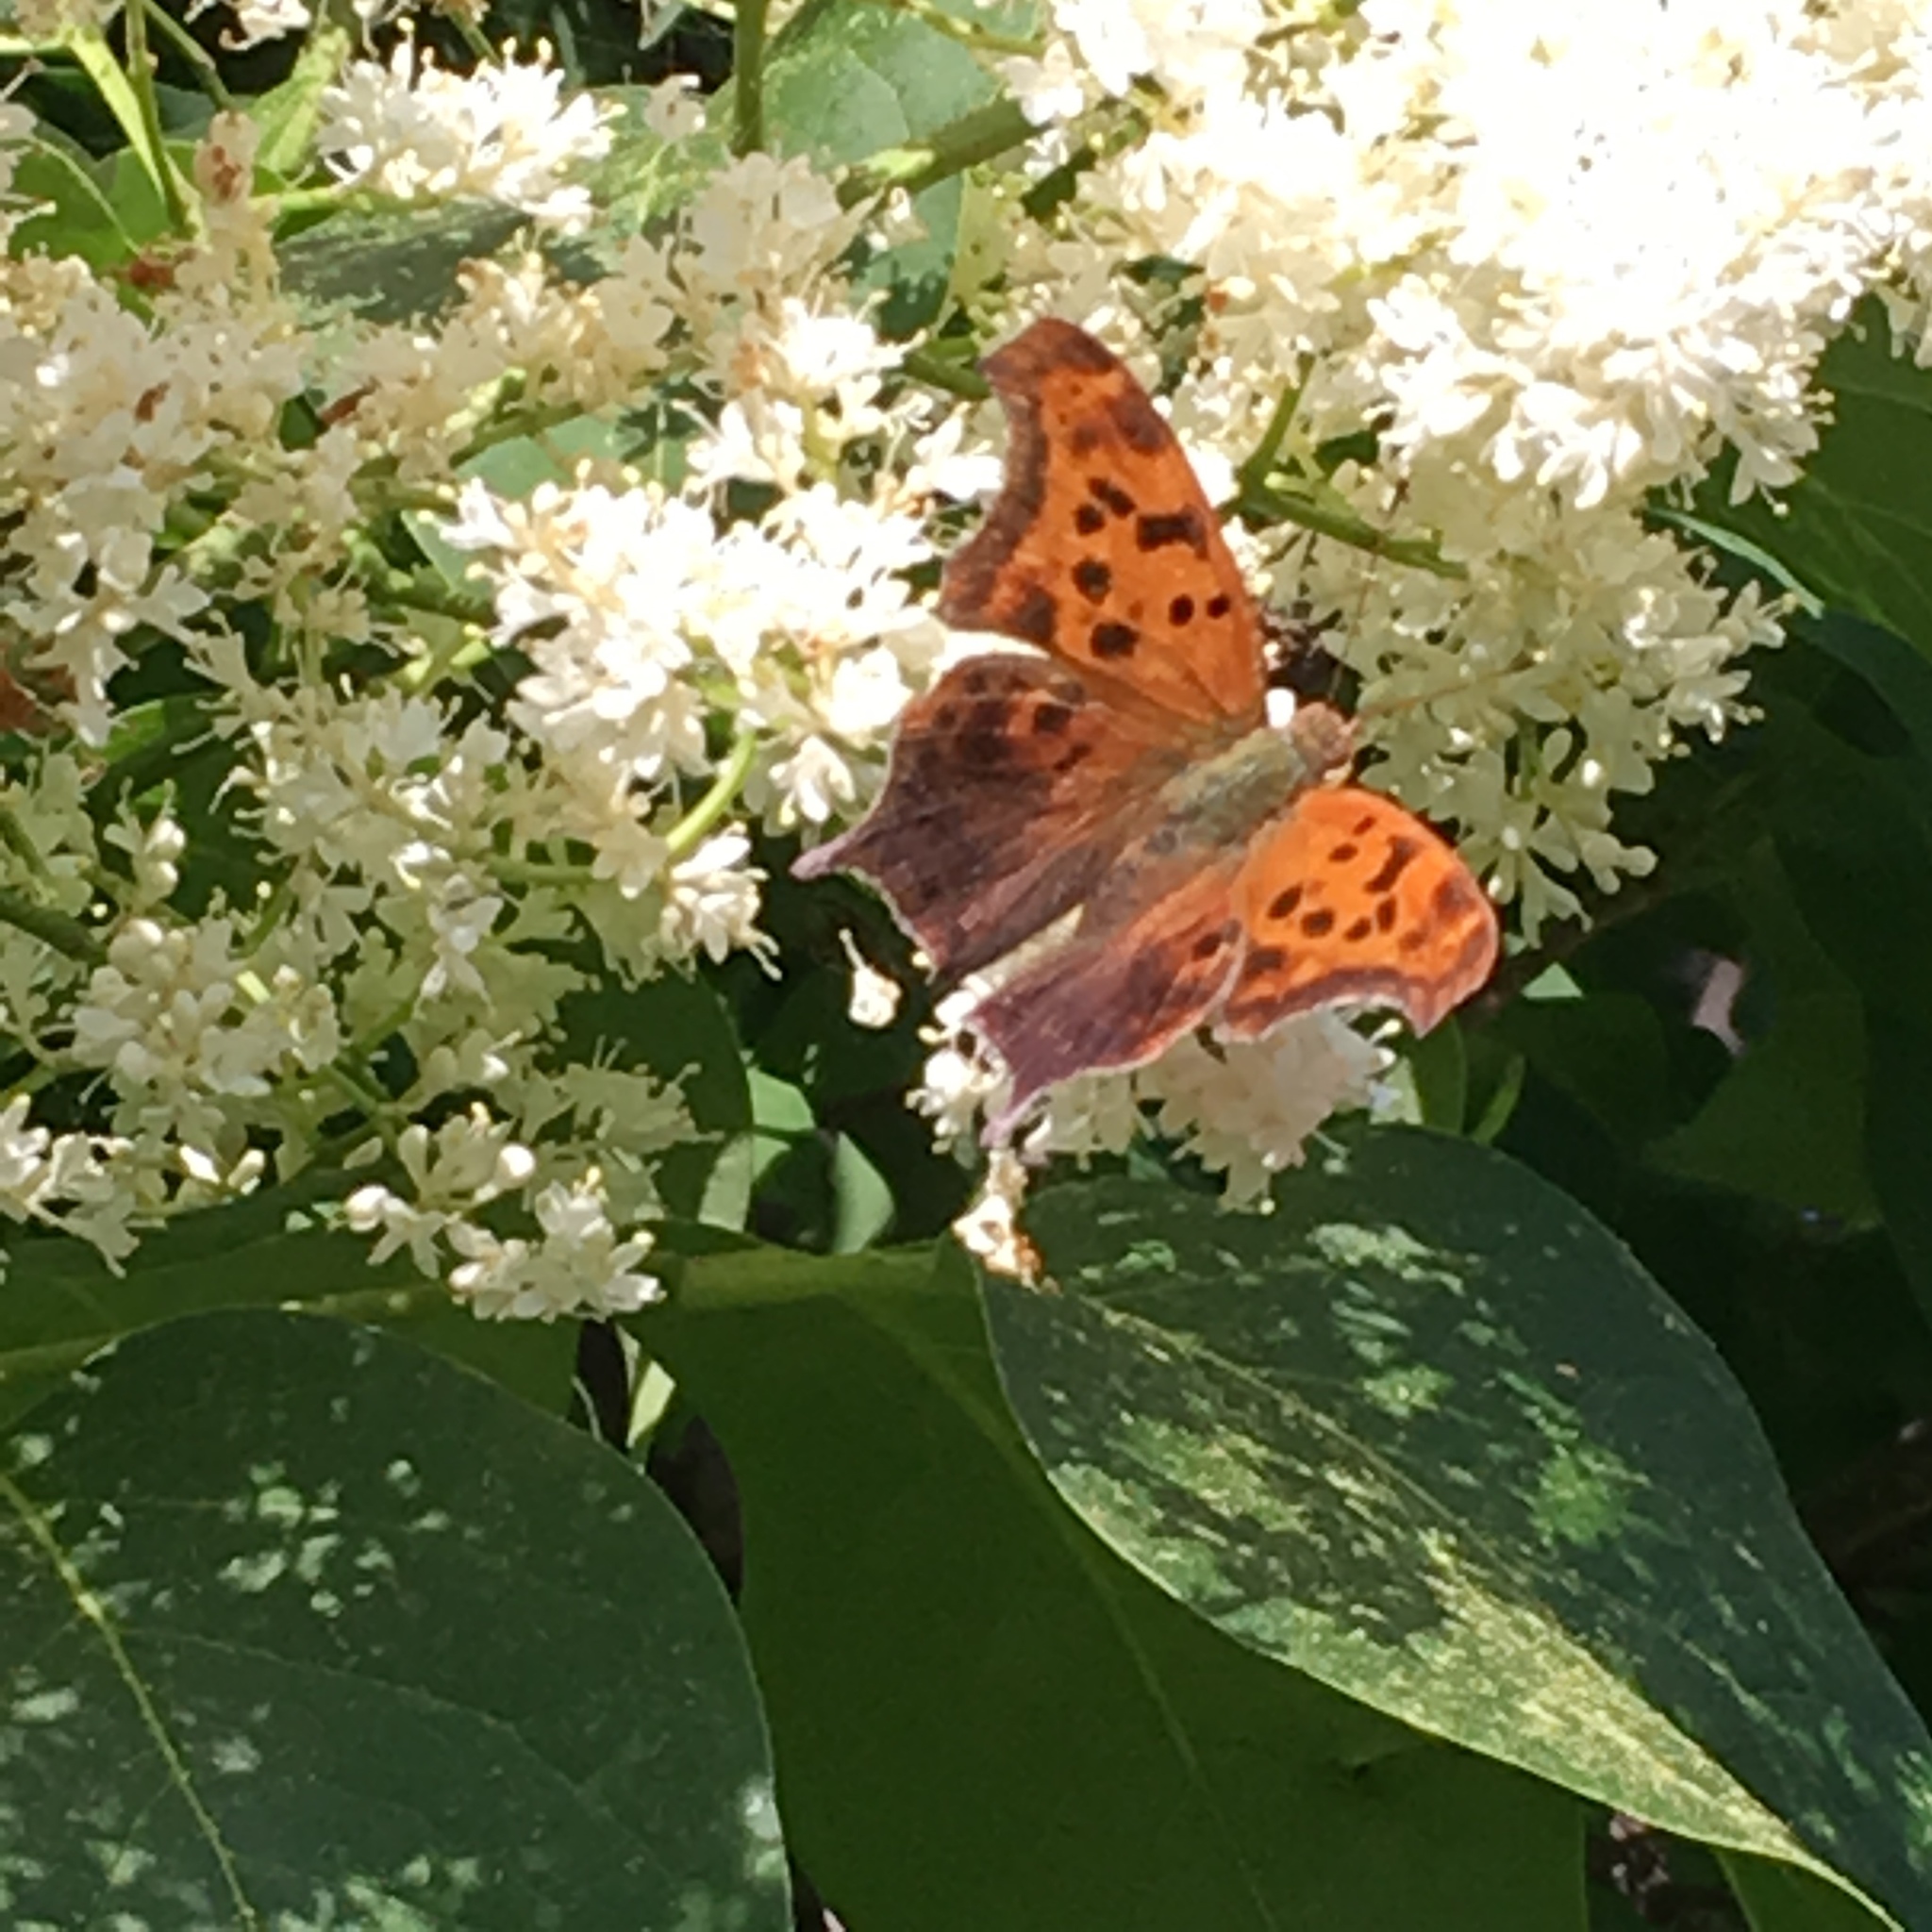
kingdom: Animalia
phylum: Arthropoda
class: Insecta
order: Lepidoptera
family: Nymphalidae
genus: Polygonia
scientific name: Polygonia interrogationis
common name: Question mark
